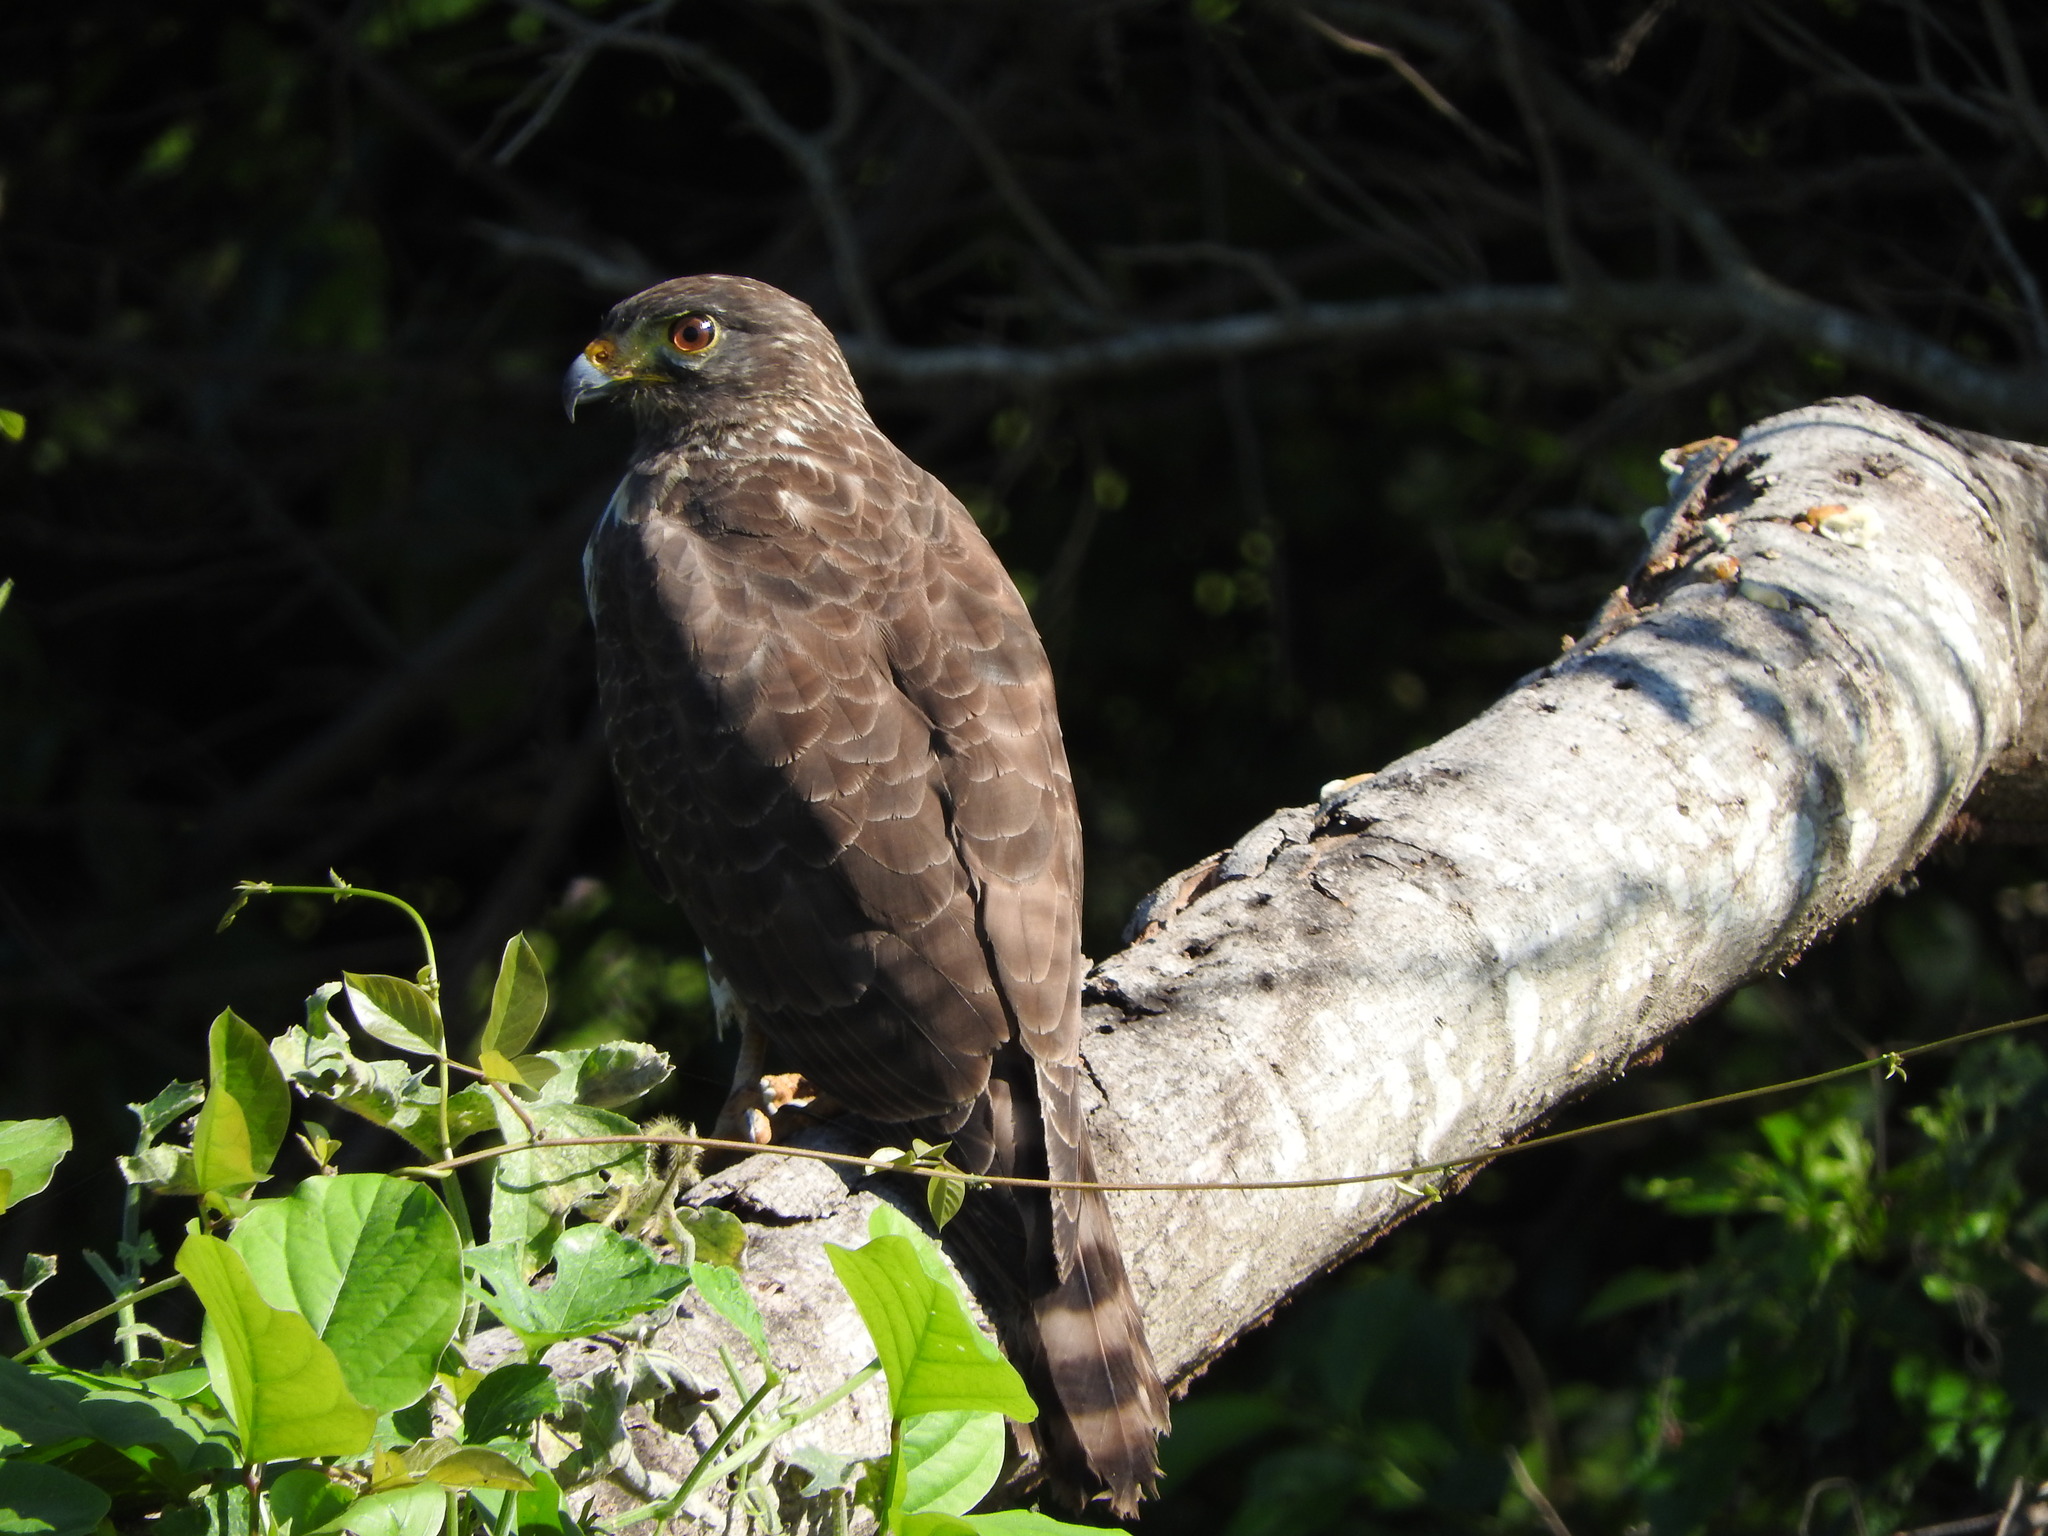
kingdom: Animalia
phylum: Chordata
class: Aves
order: Accipitriformes
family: Accipitridae
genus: Rupornis
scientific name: Rupornis magnirostris
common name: Roadside hawk
